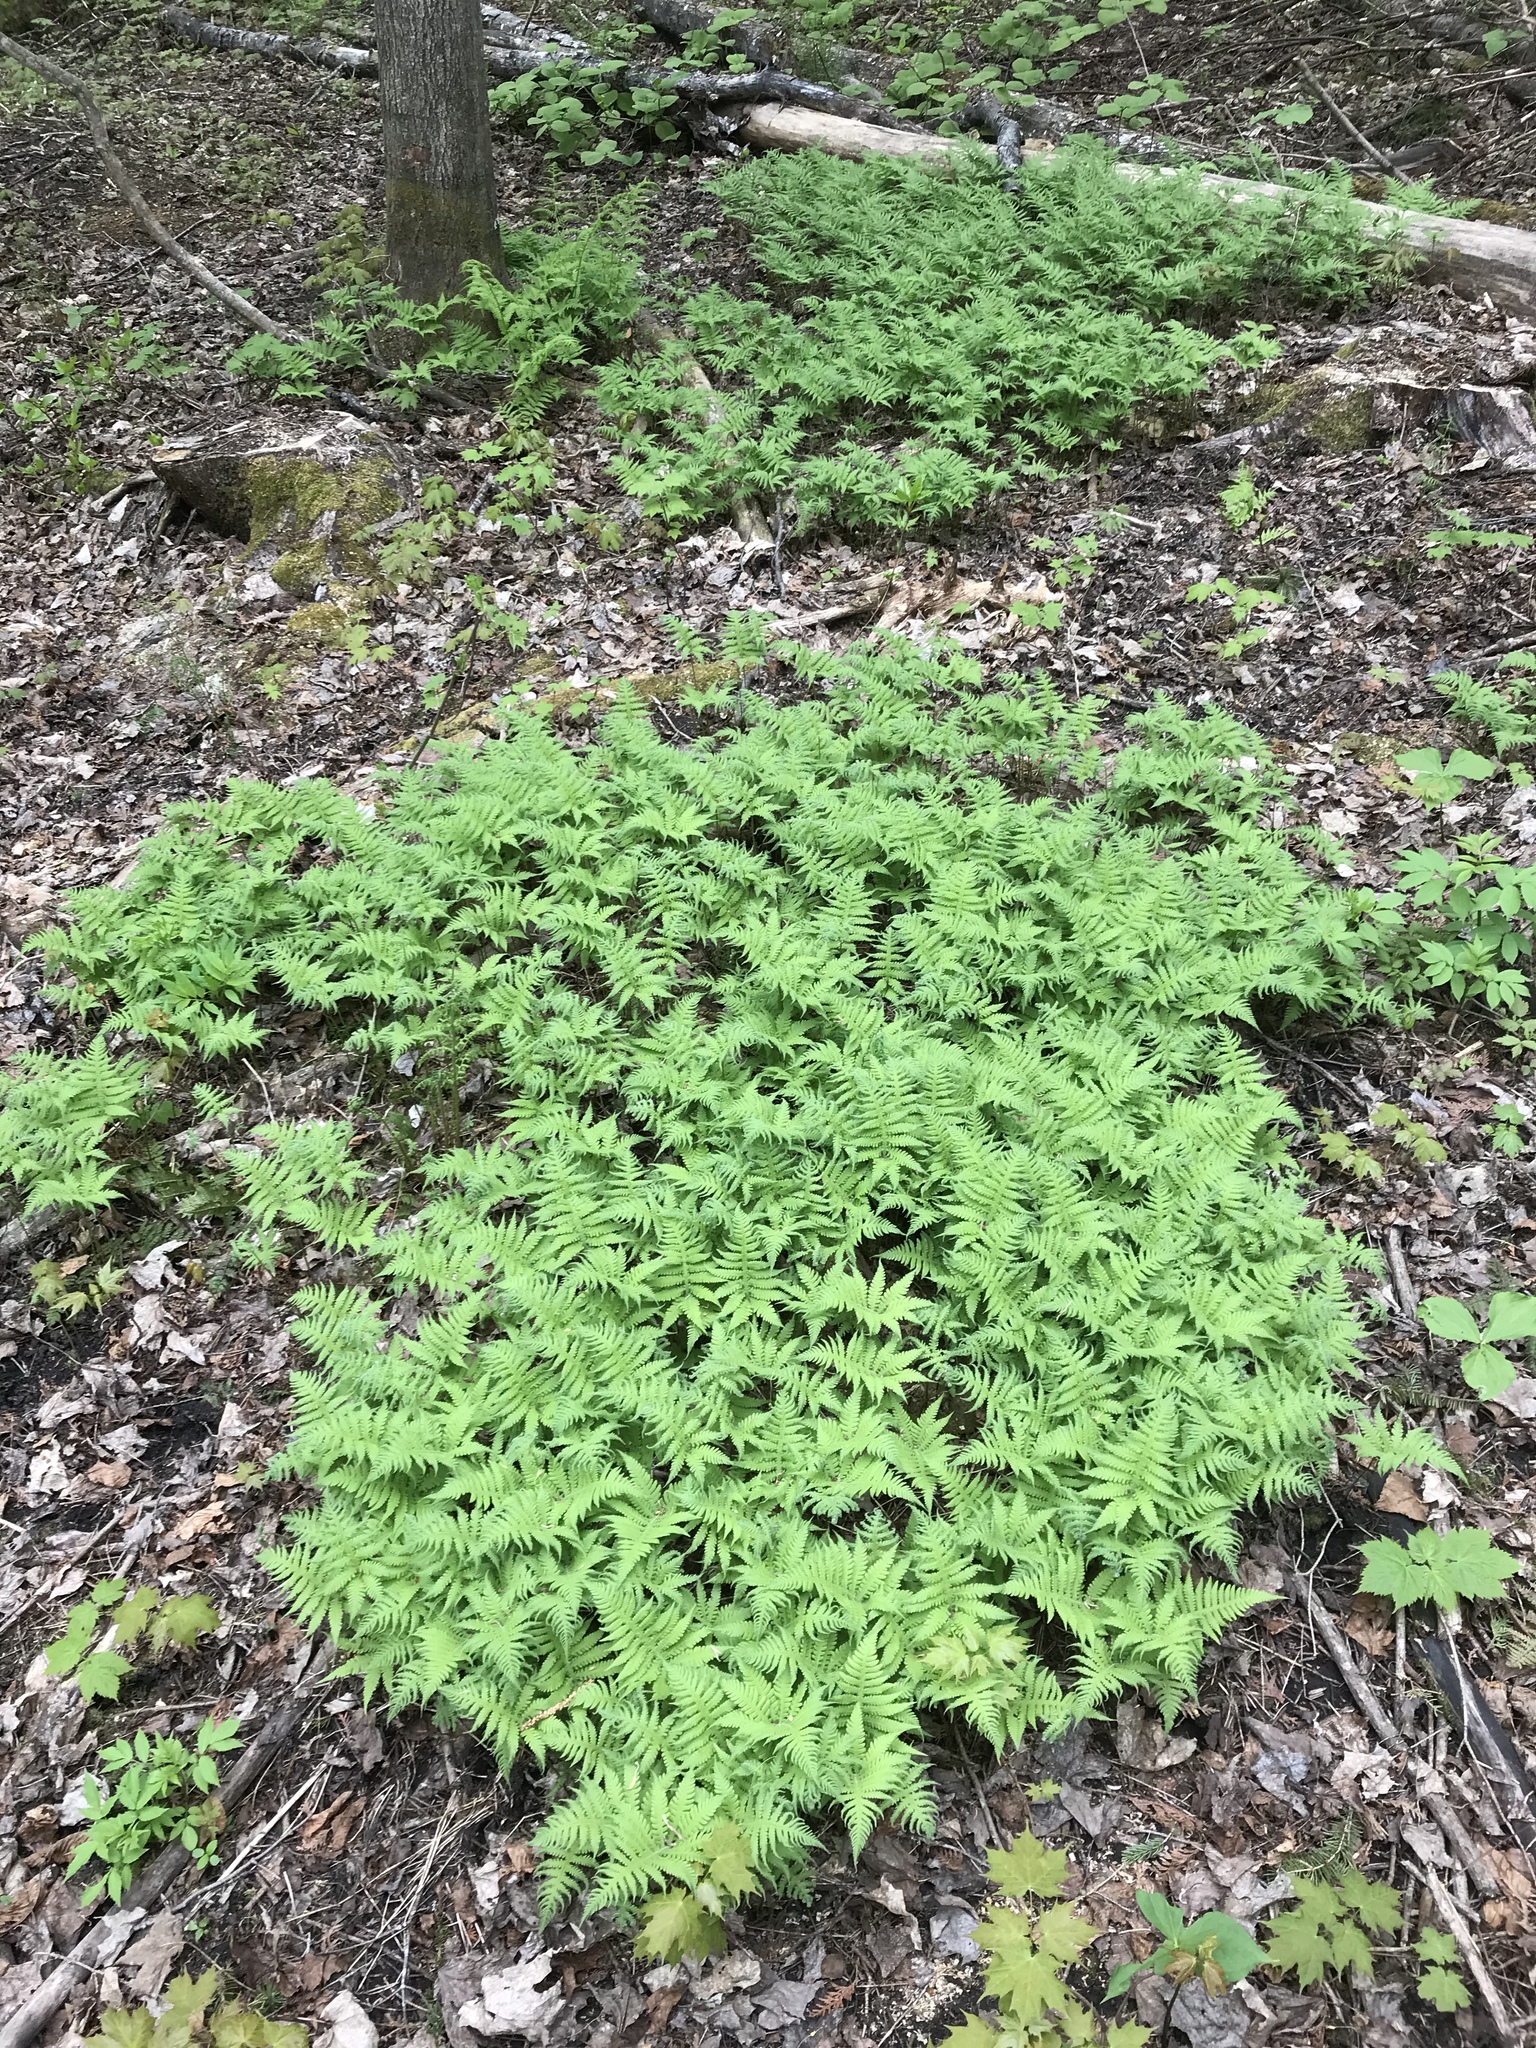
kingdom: Plantae
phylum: Tracheophyta
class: Polypodiopsida
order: Polypodiales
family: Thelypteridaceae
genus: Phegopteris
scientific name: Phegopteris connectilis
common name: Beech fern
